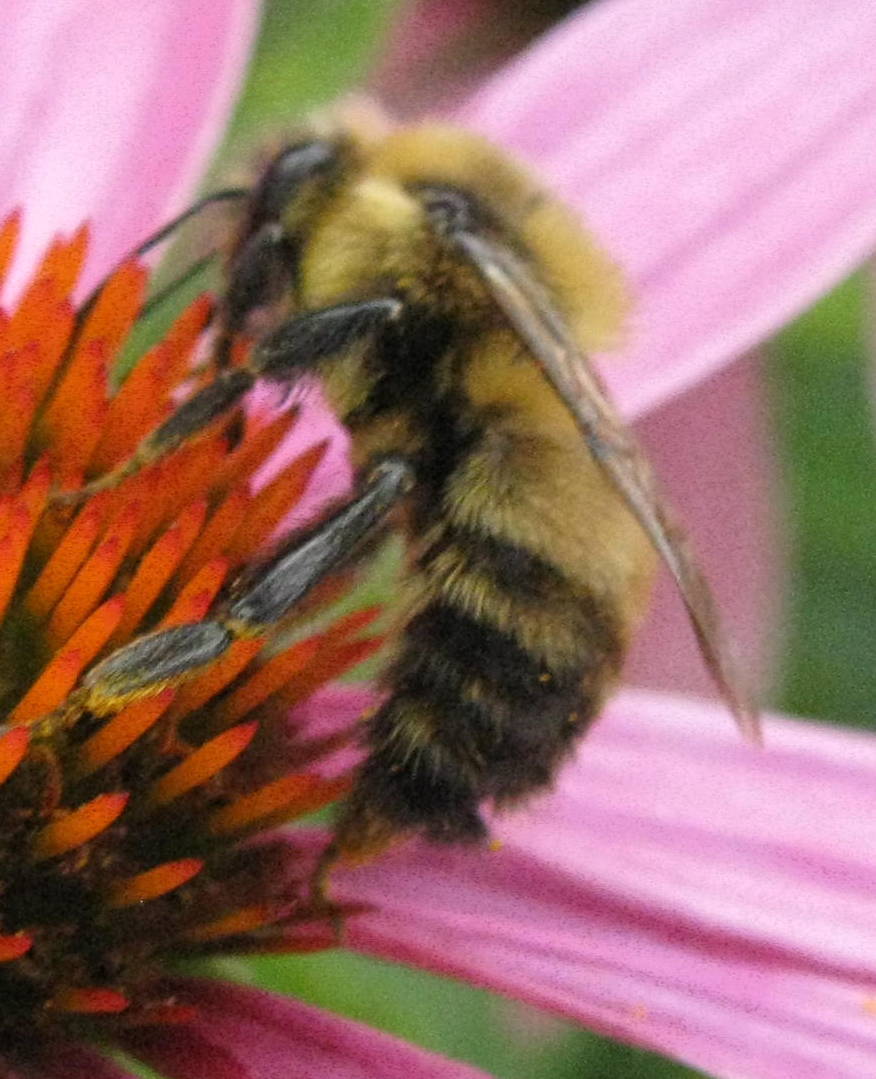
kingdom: Animalia
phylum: Arthropoda
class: Insecta
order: Hymenoptera
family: Apidae
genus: Bombus
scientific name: Bombus rufocinctus
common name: Red-belted bumble bee
